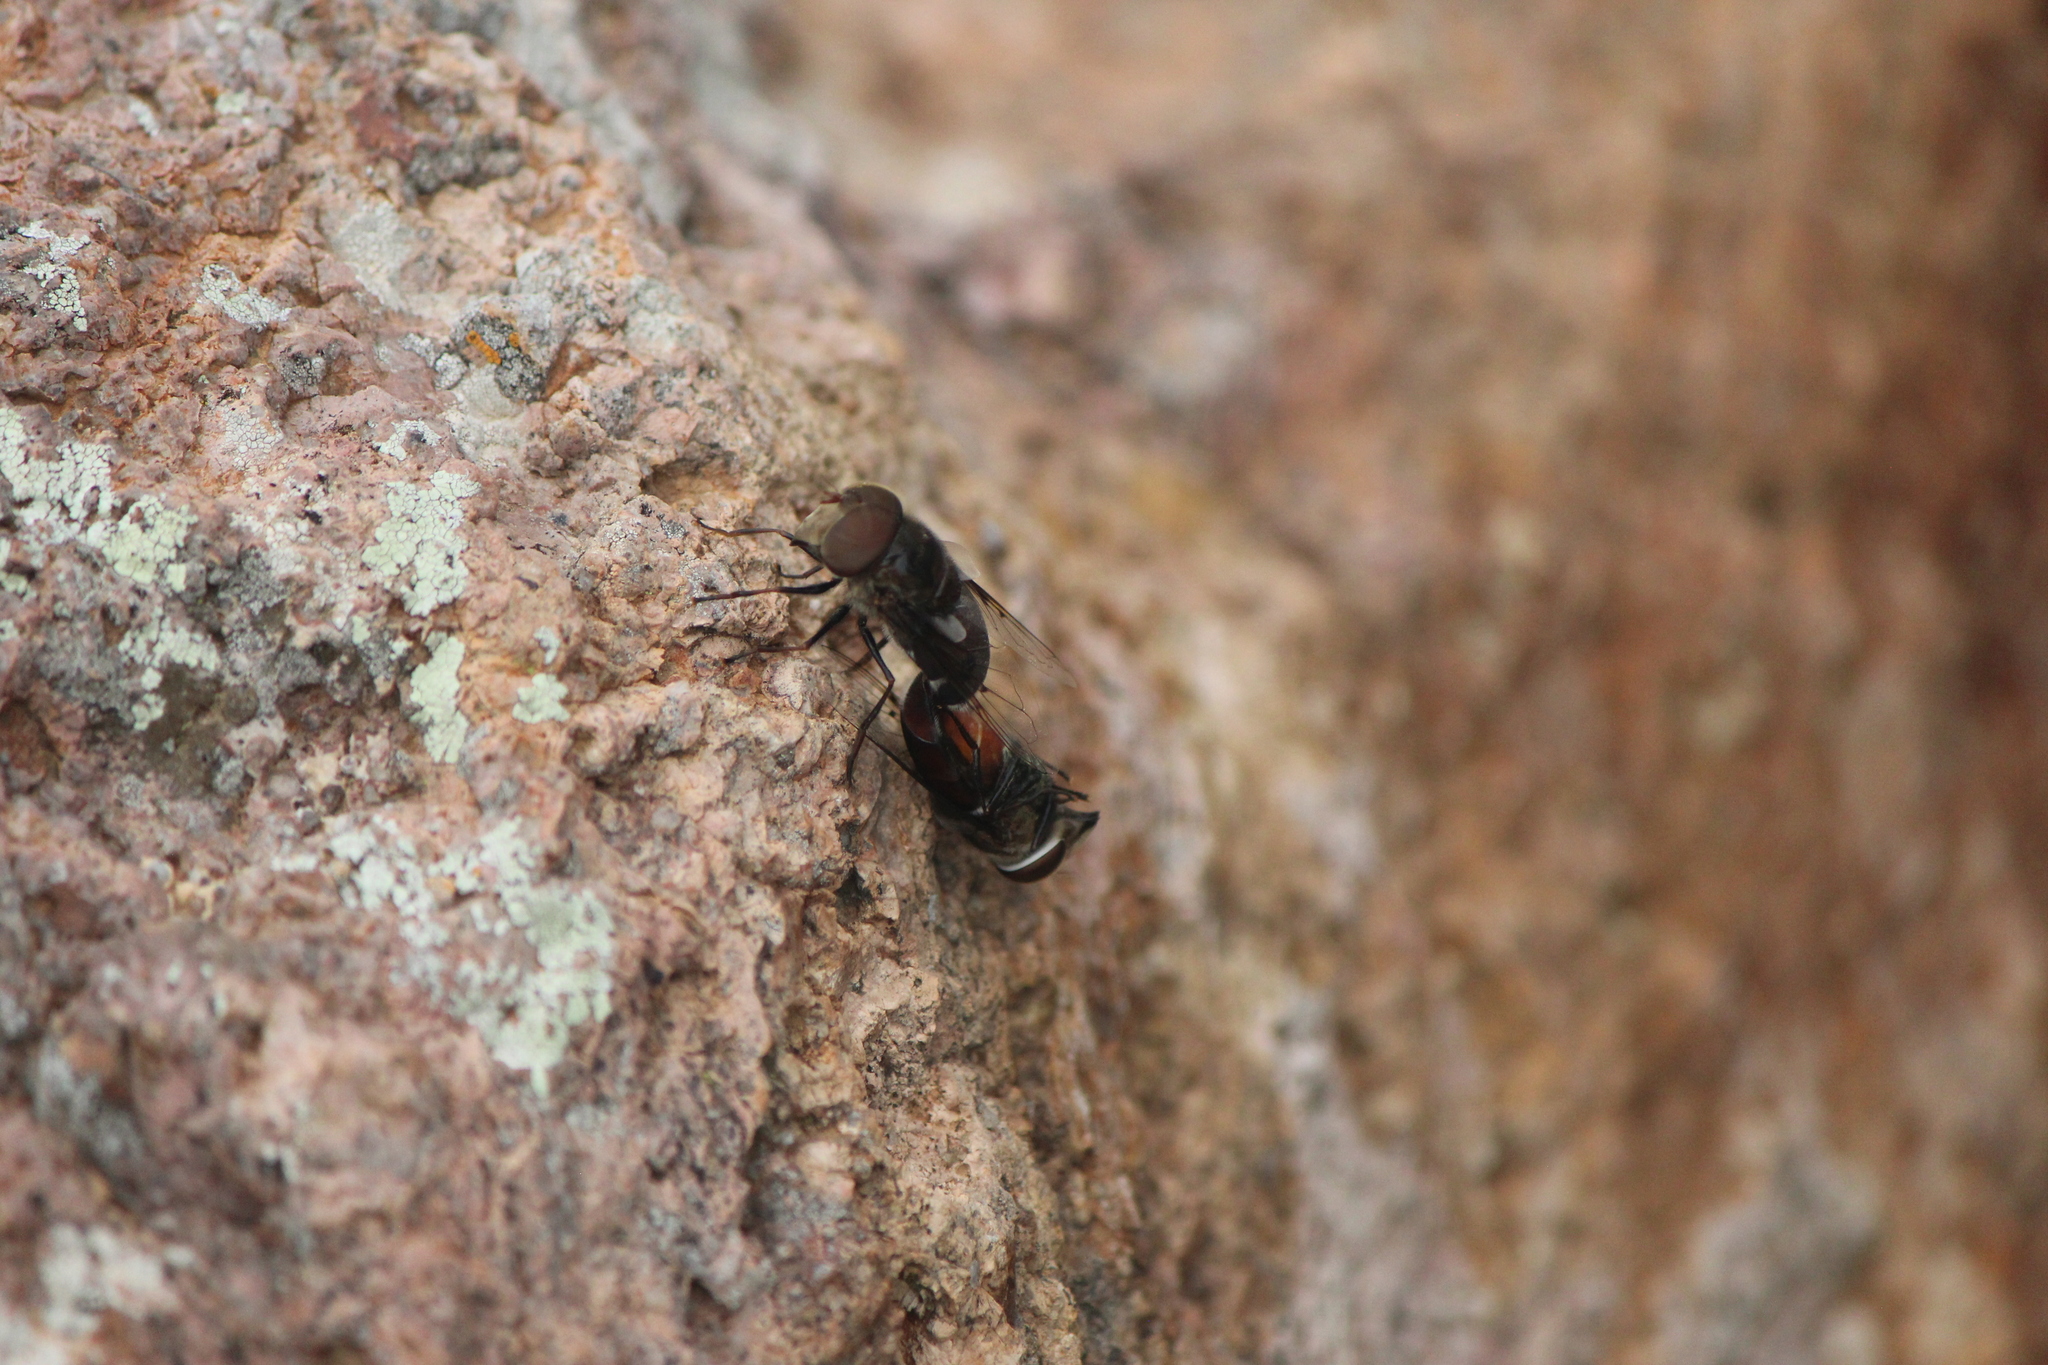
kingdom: Animalia
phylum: Arthropoda
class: Insecta
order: Diptera
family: Syrphidae
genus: Copestylum
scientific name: Copestylum anna
